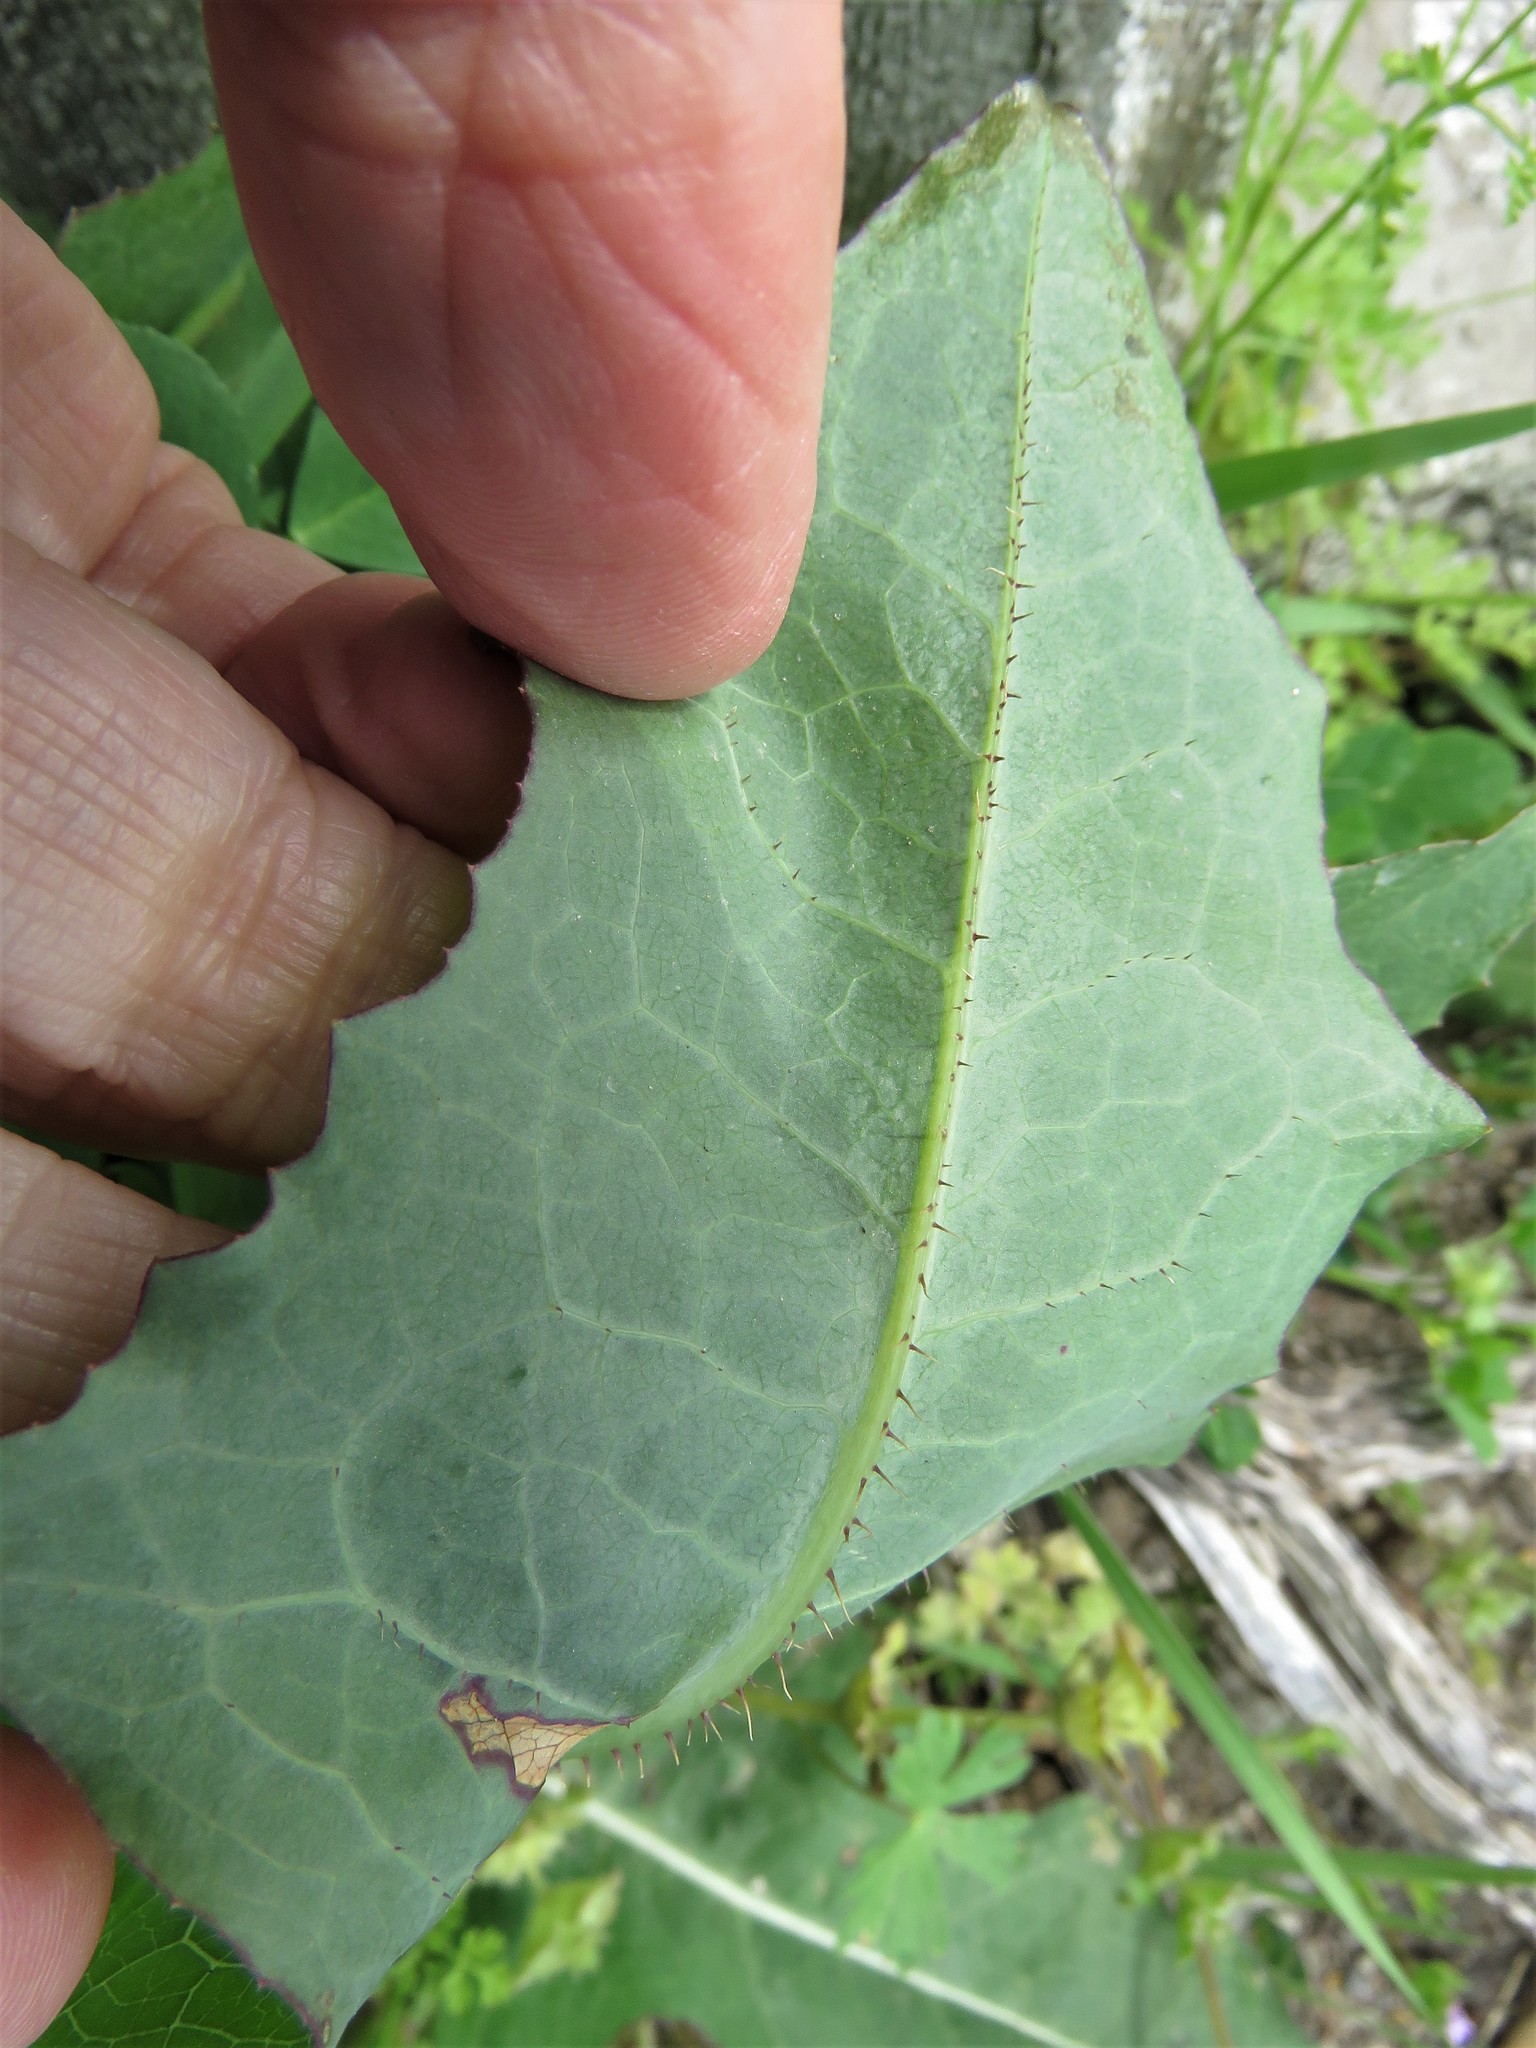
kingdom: Plantae
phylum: Tracheophyta
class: Magnoliopsida
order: Asterales
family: Asteraceae
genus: Lactuca
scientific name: Lactuca serriola
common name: Prickly lettuce
